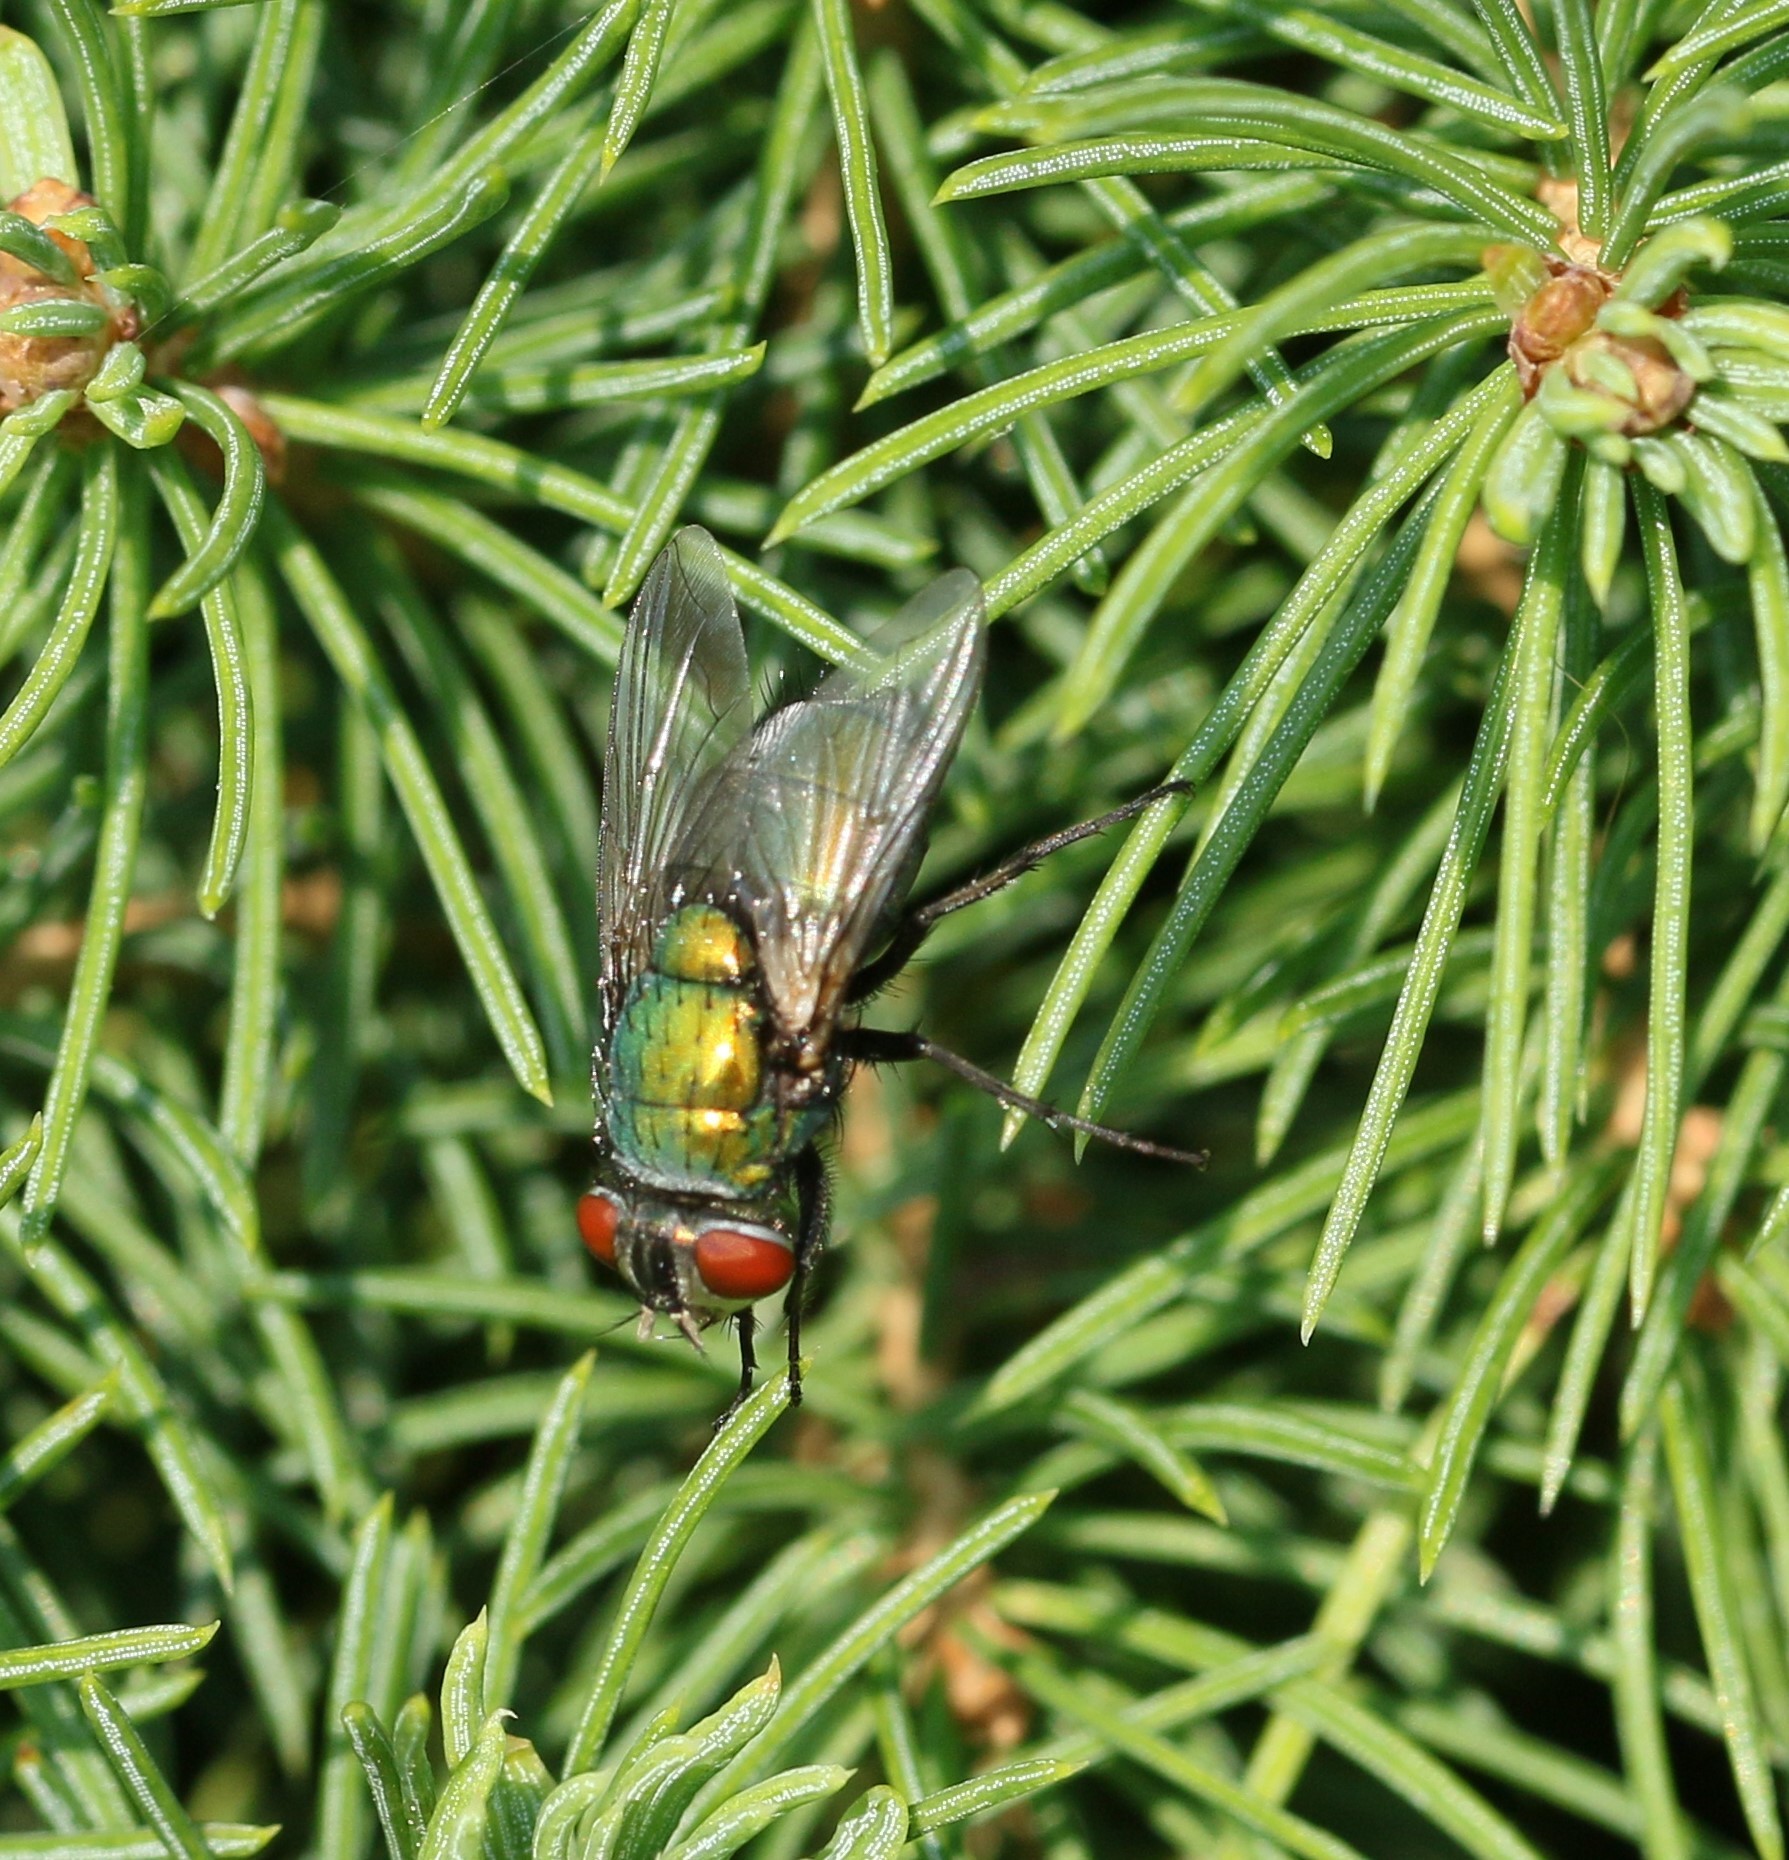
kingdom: Animalia
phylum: Arthropoda
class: Insecta
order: Diptera
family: Calliphoridae
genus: Lucilia
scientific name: Lucilia sericata
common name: Blow fly
